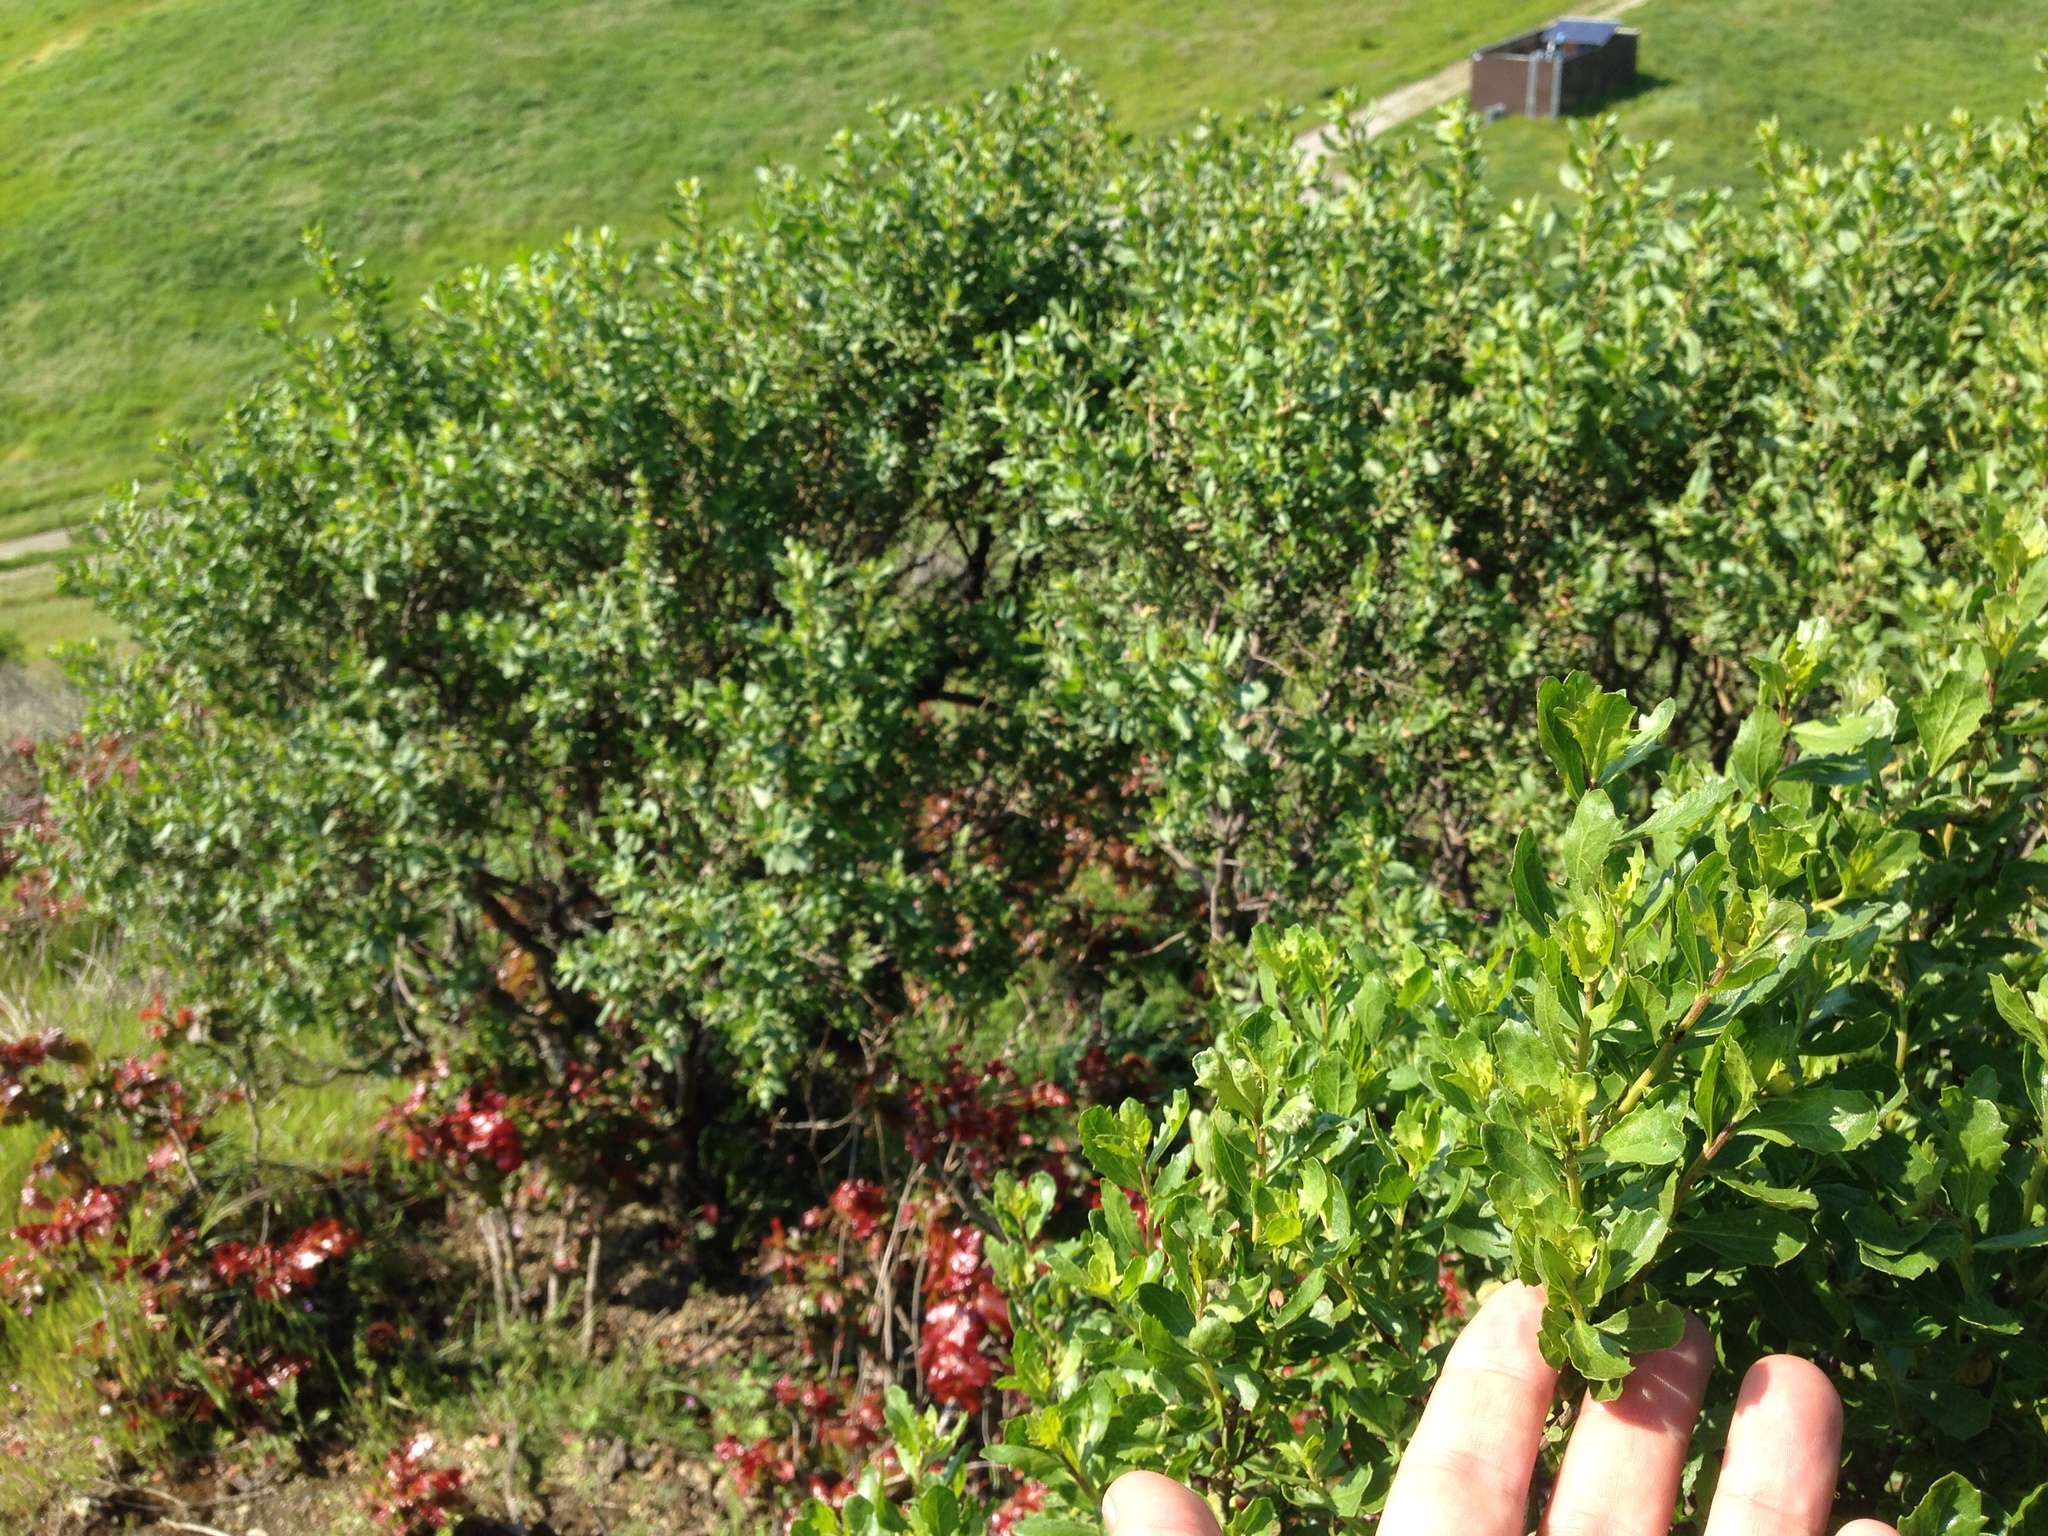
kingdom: Plantae
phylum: Tracheophyta
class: Magnoliopsida
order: Asterales
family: Asteraceae
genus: Baccharis
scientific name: Baccharis pilularis
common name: Coyotebrush
